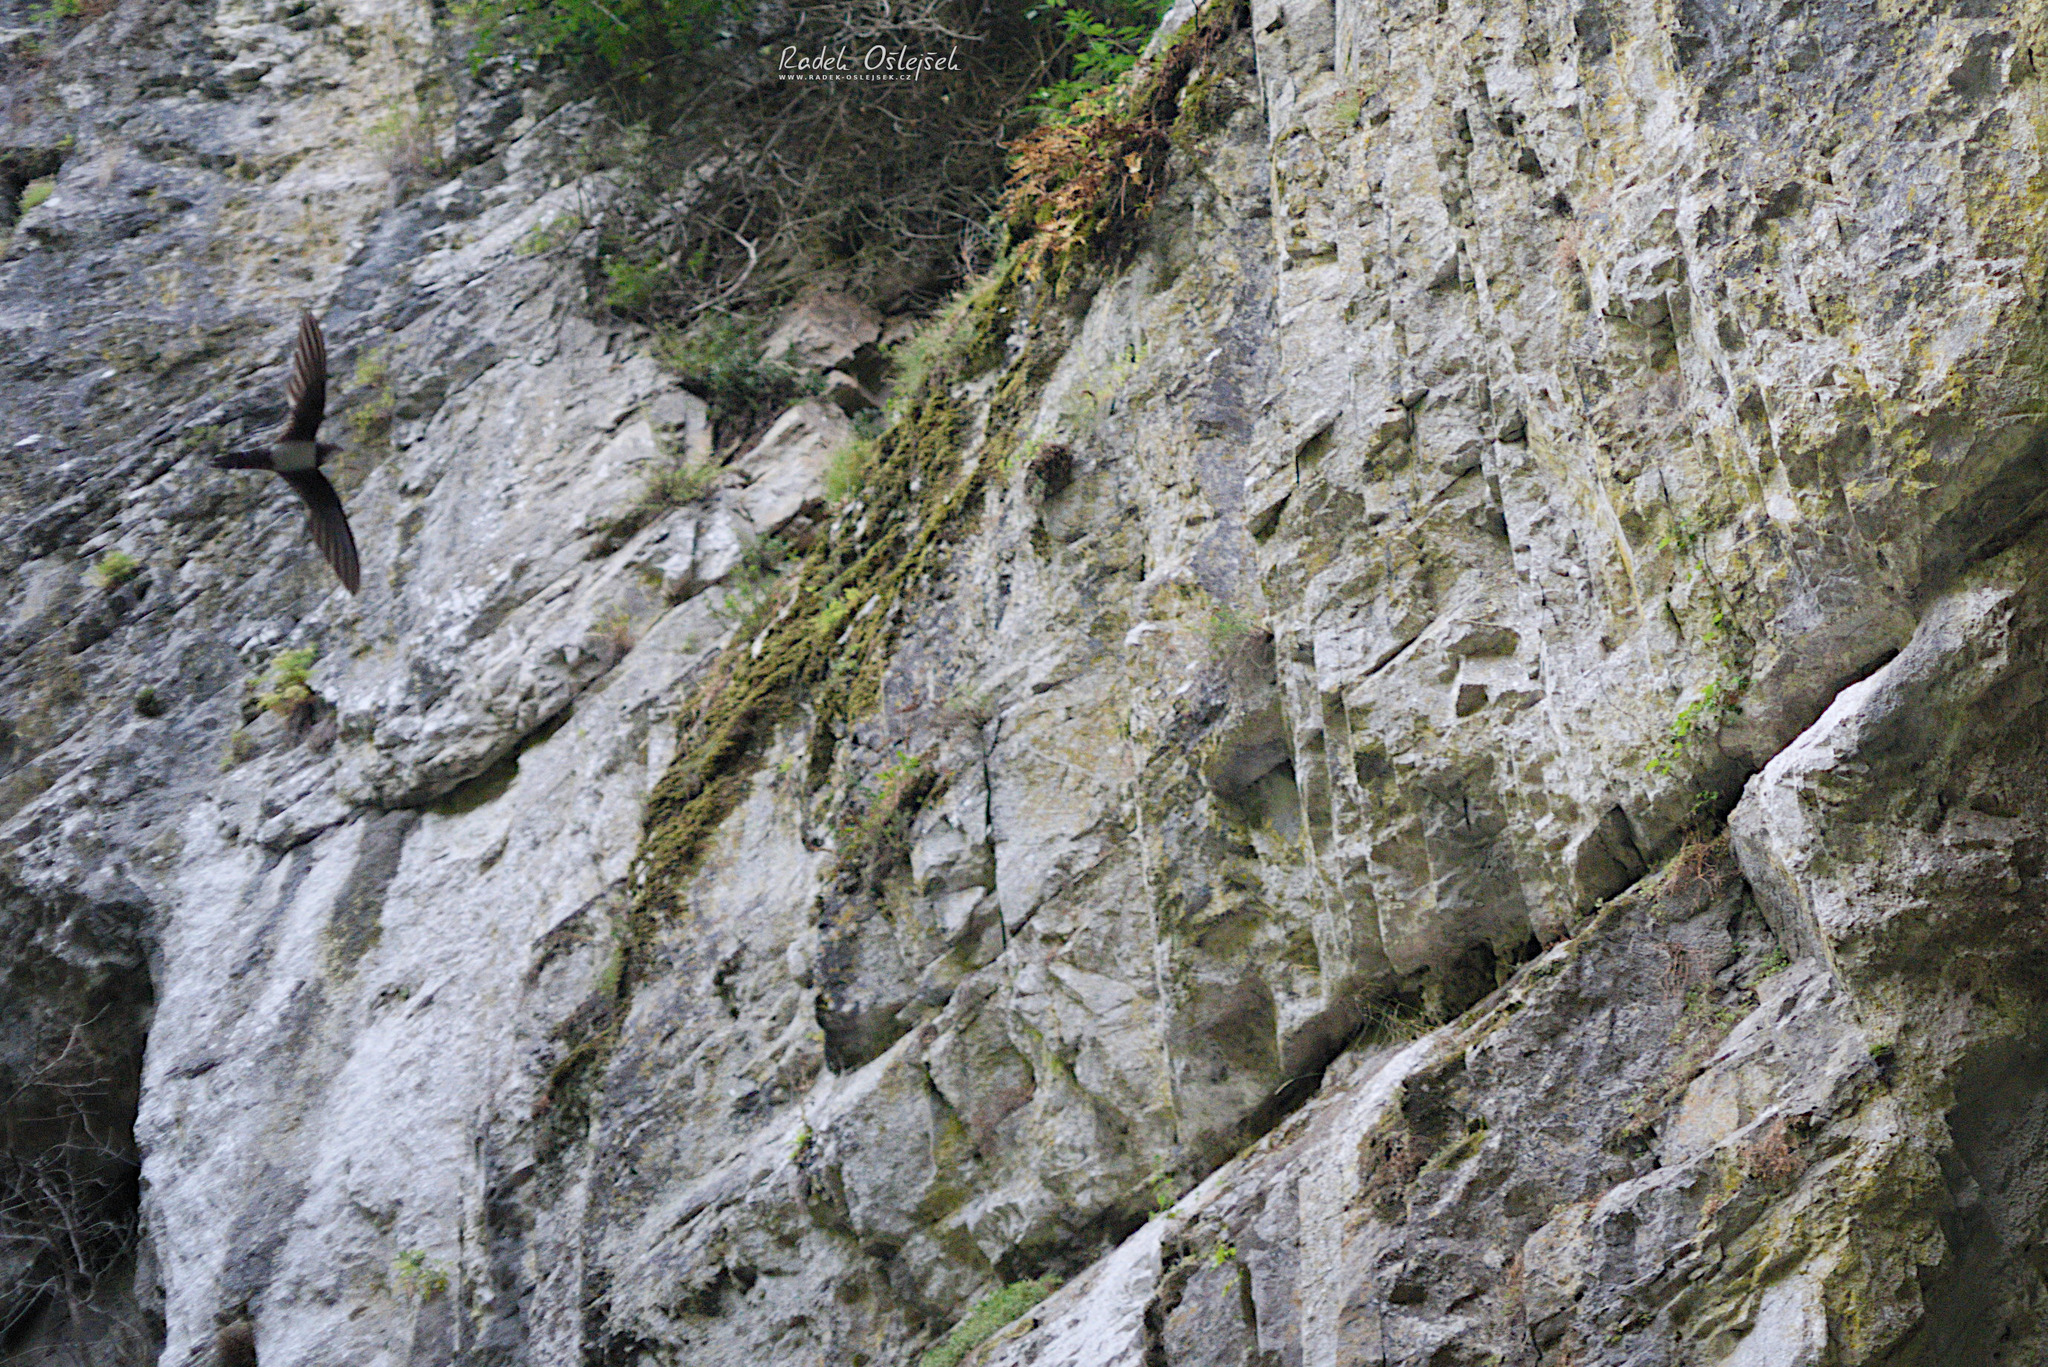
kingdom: Animalia
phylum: Chordata
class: Aves
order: Apodiformes
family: Apodidae
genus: Tachymarptis
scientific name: Tachymarptis melba
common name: Alpine swift
